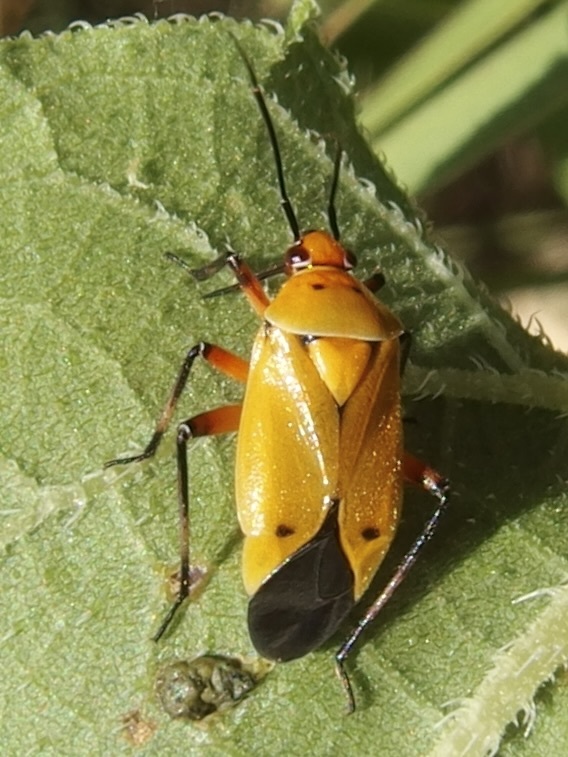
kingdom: Animalia
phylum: Arthropoda
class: Insecta
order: Hemiptera
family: Miridae
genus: Neocapsus
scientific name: Neocapsus fasciativentris
